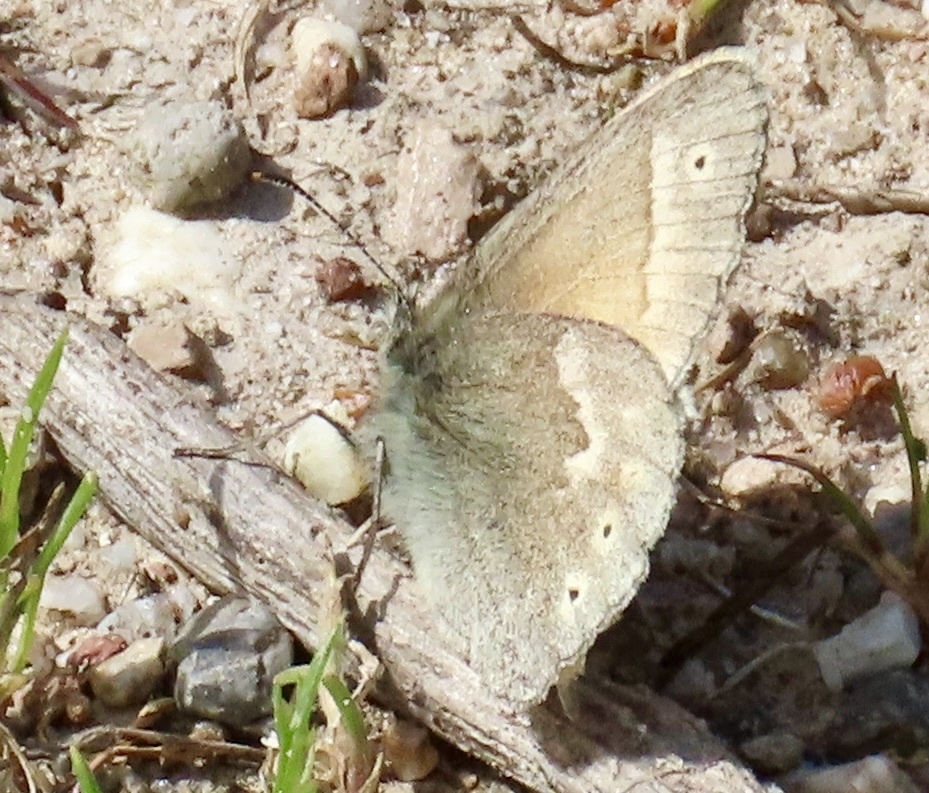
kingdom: Animalia
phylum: Arthropoda
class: Insecta
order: Lepidoptera
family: Nymphalidae
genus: Coenonympha
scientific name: Coenonympha california
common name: Common ringlet
